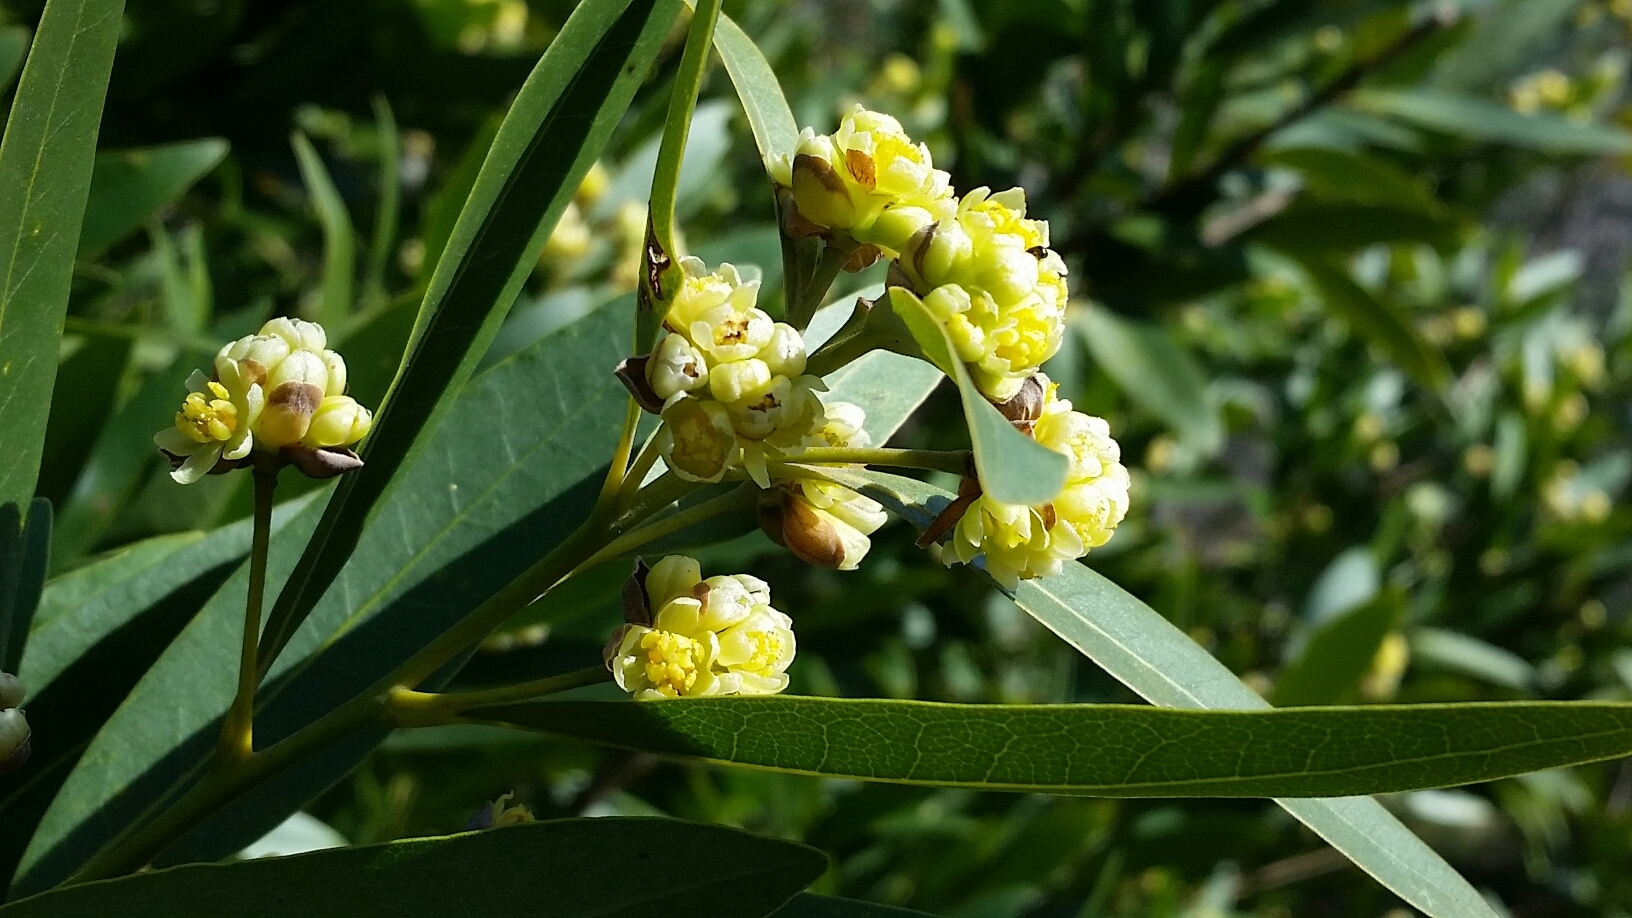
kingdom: Plantae
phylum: Tracheophyta
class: Magnoliopsida
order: Laurales
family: Lauraceae
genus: Umbellularia
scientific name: Umbellularia californica
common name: California bay
